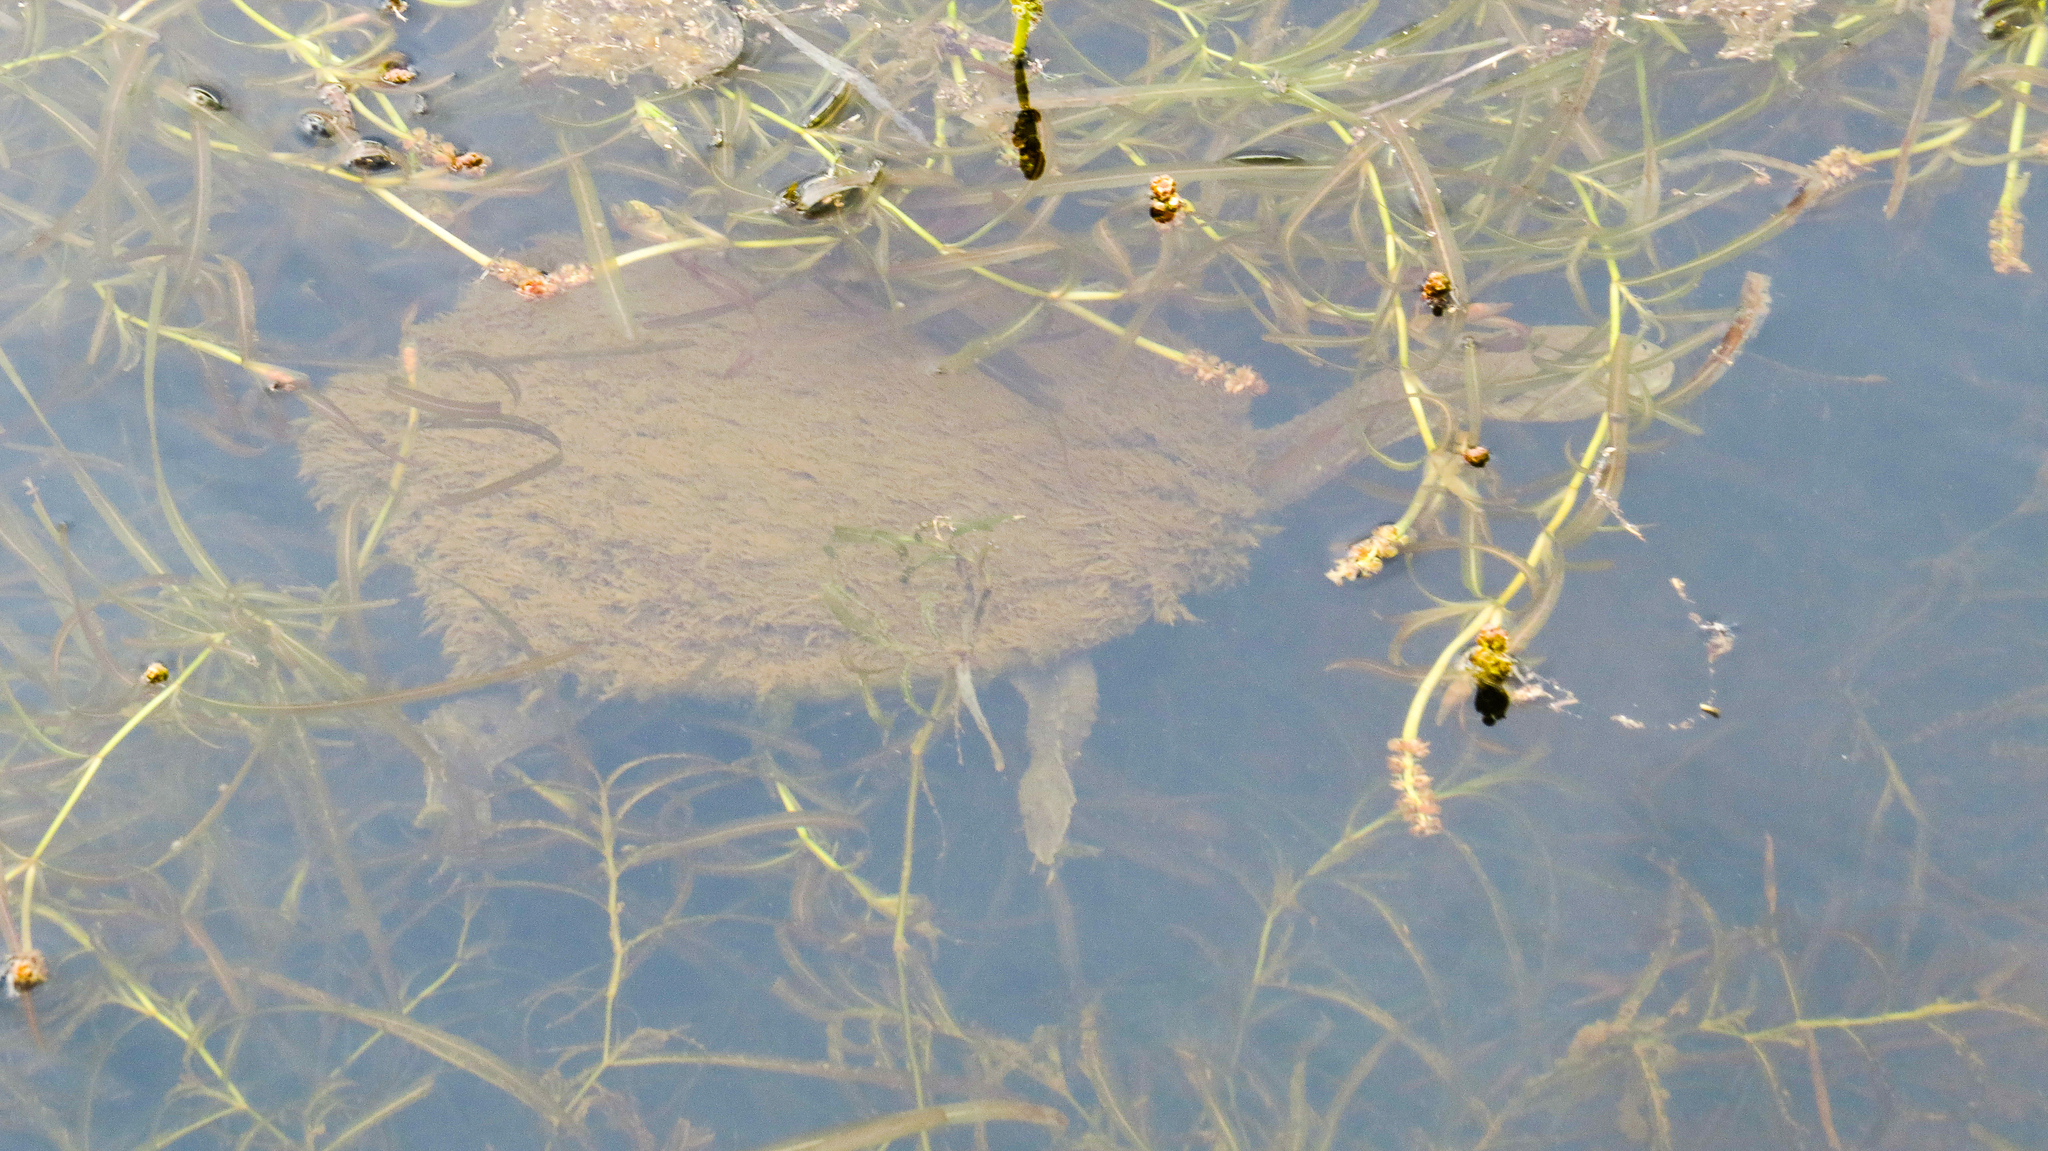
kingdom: Animalia
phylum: Chordata
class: Testudines
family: Chelidae
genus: Chelodina
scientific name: Chelodina longicollis
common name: Eastern snake-necked turtle
